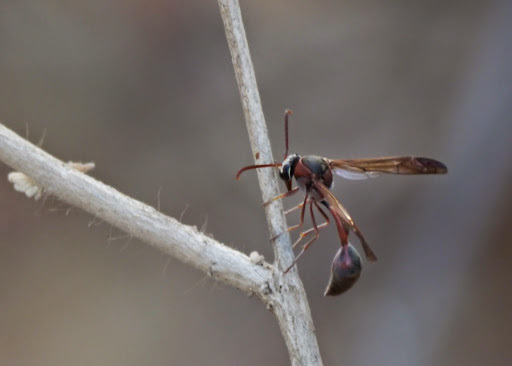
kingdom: Animalia
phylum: Arthropoda
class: Insecta
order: Hymenoptera
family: Eumenidae
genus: Afreumenes
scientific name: Afreumenes
